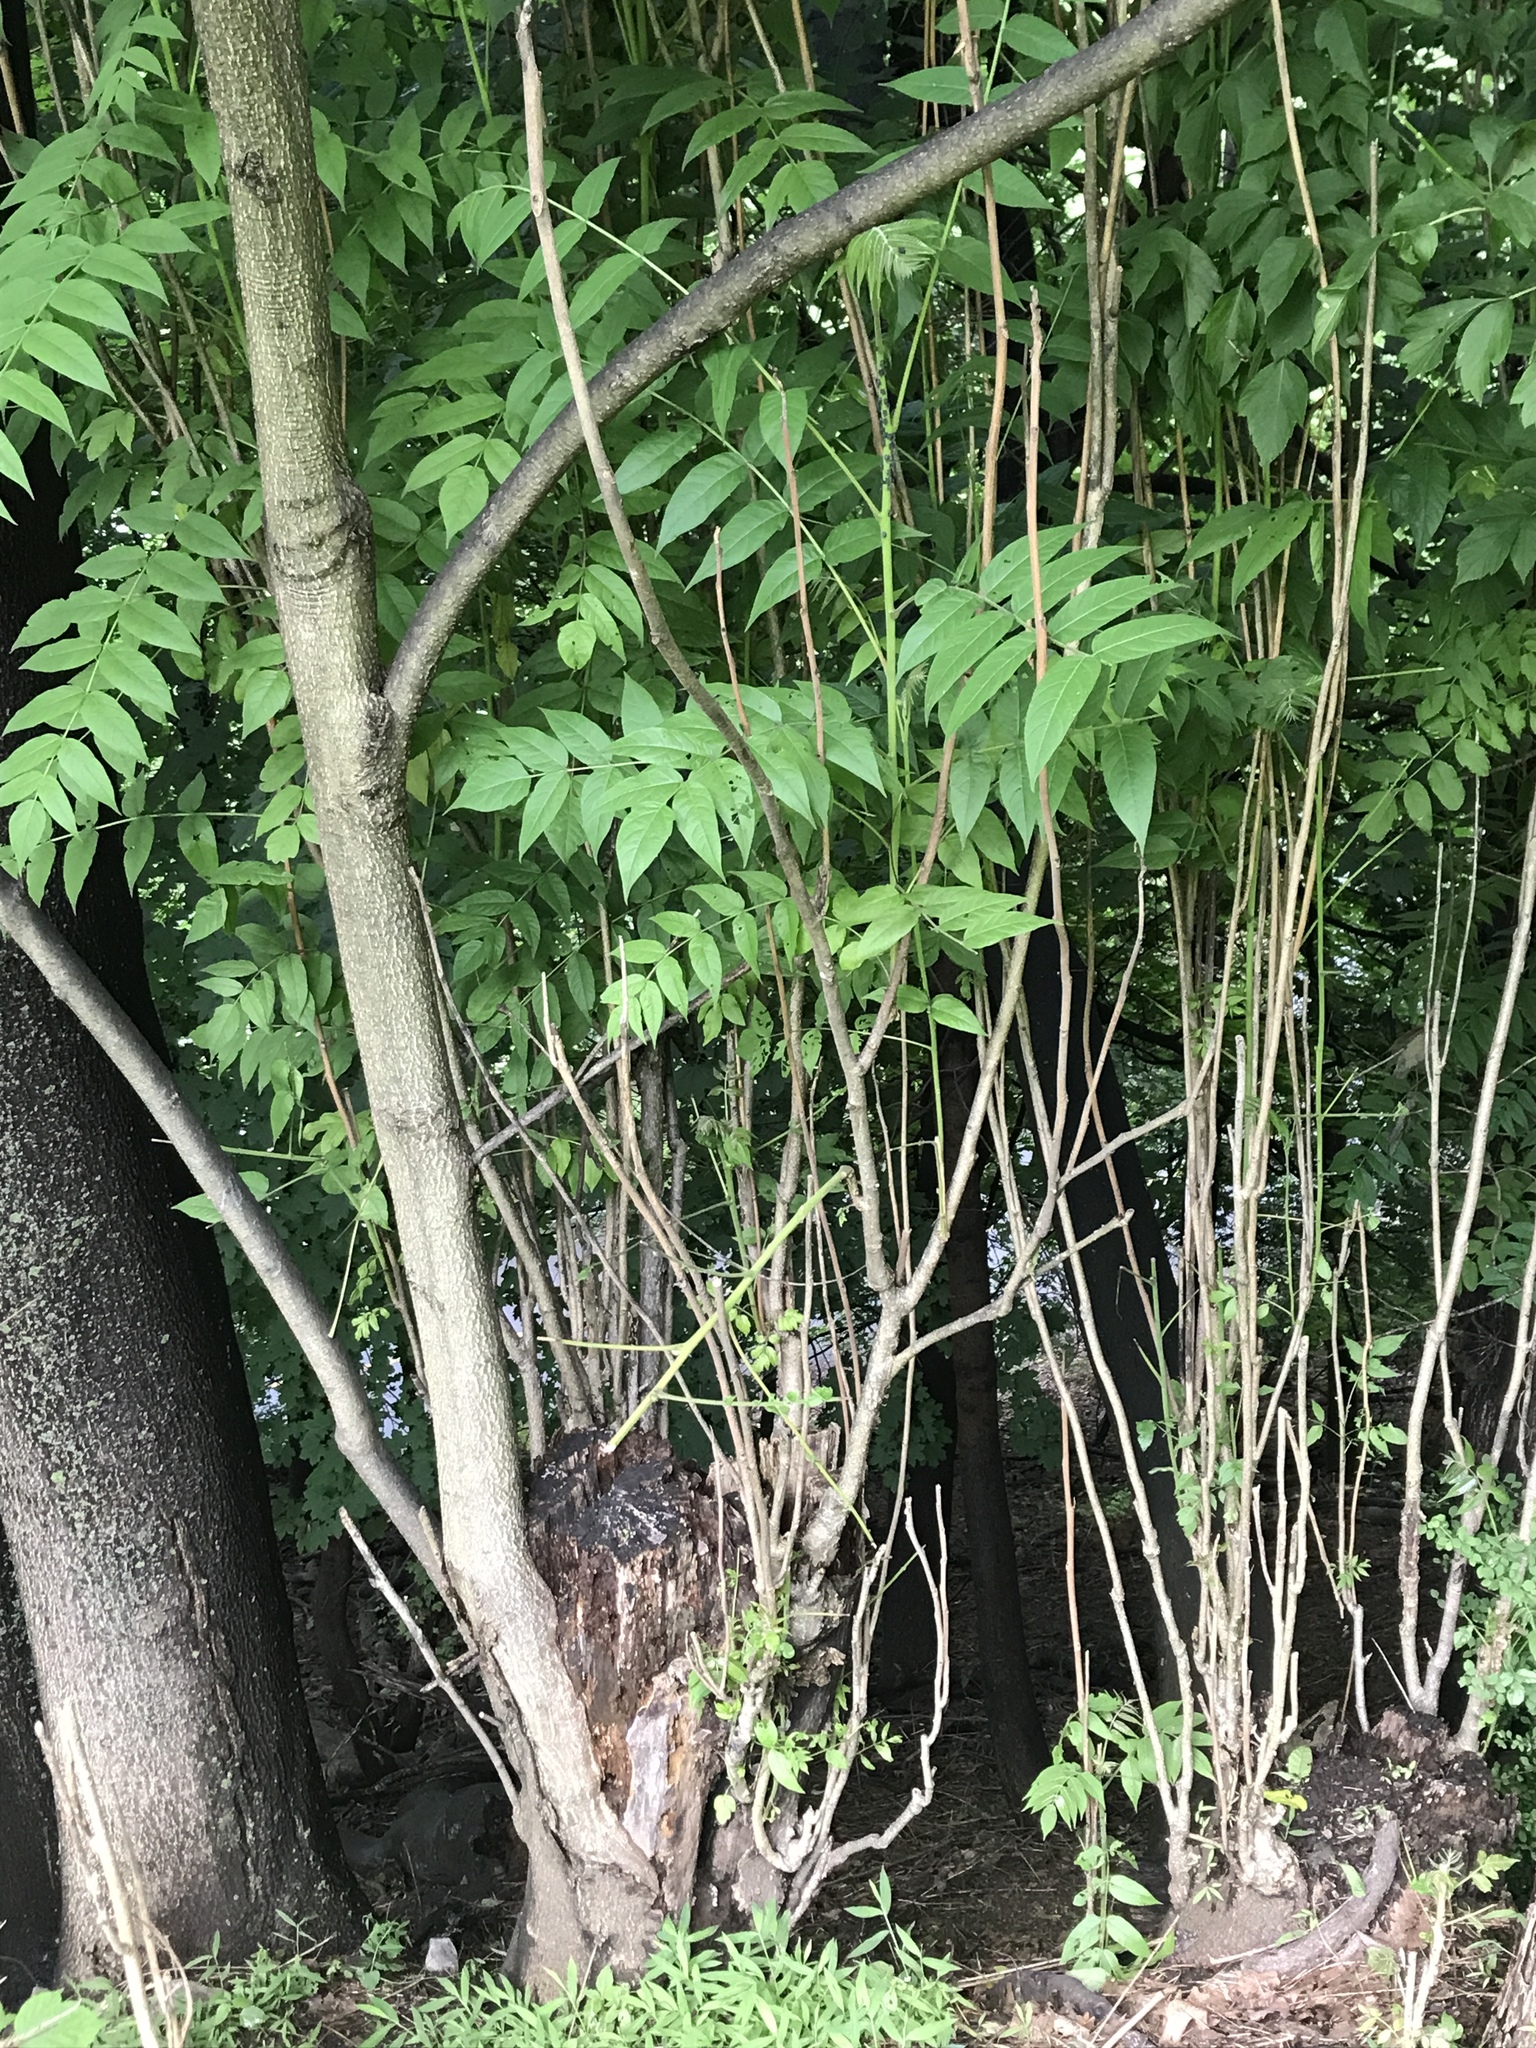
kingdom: Plantae
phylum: Tracheophyta
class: Magnoliopsida
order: Sapindales
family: Simaroubaceae
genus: Ailanthus
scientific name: Ailanthus altissima
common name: Tree-of-heaven
